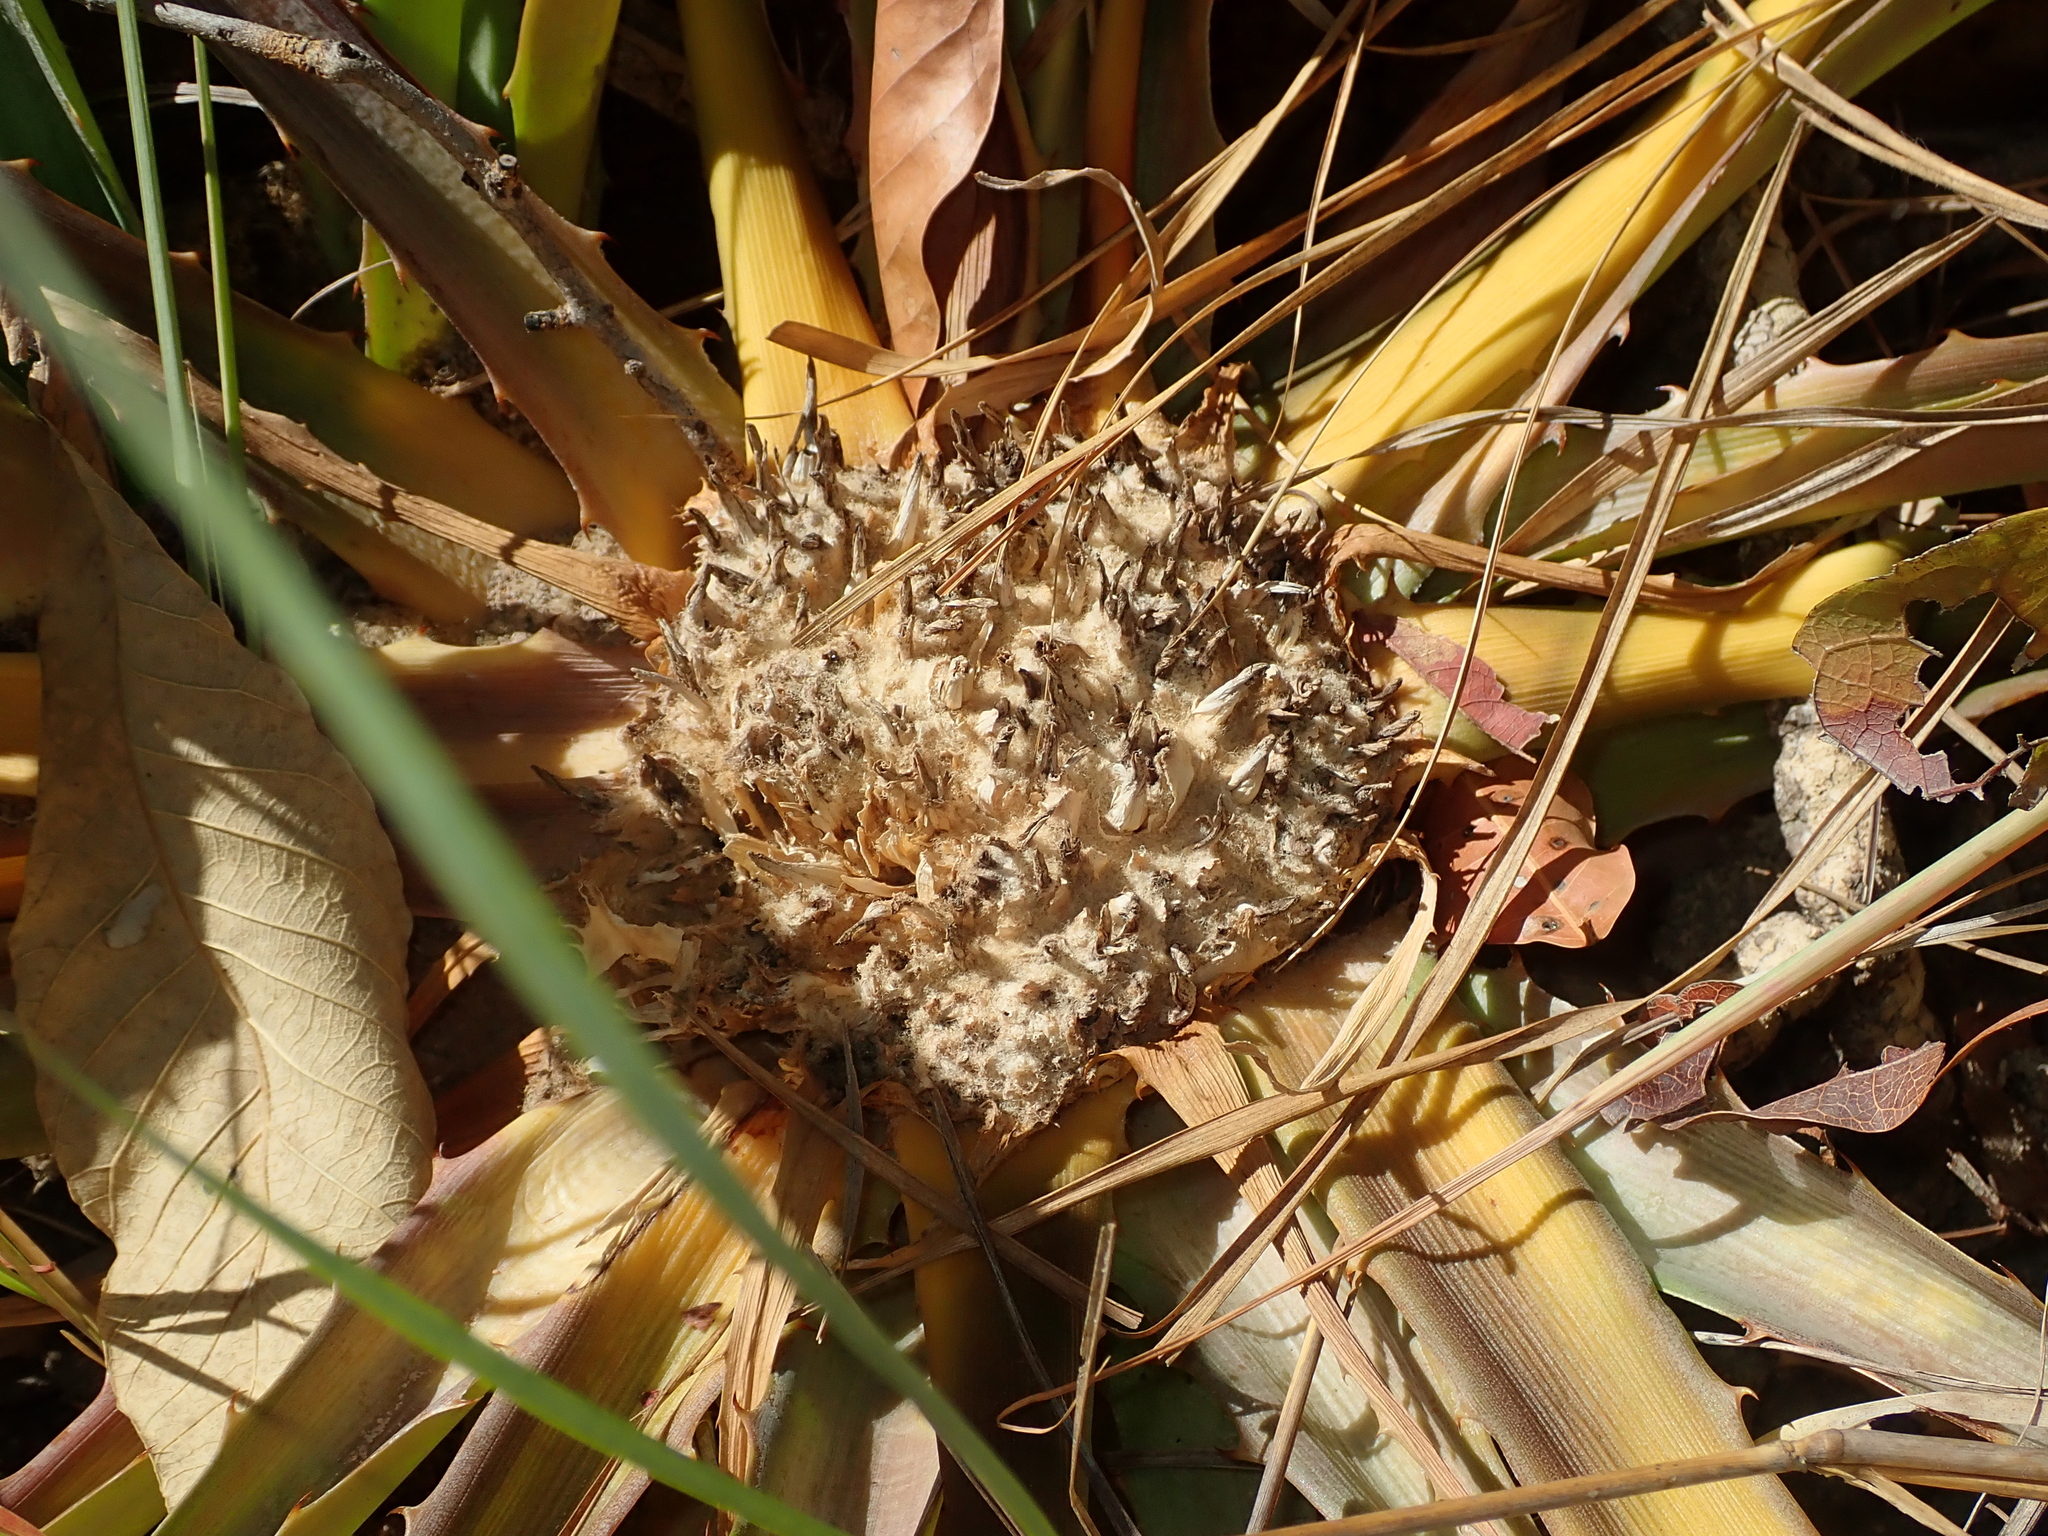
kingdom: Plantae
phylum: Tracheophyta
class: Liliopsida
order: Poales
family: Bromeliaceae
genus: Bromelia
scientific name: Bromelia villosa
